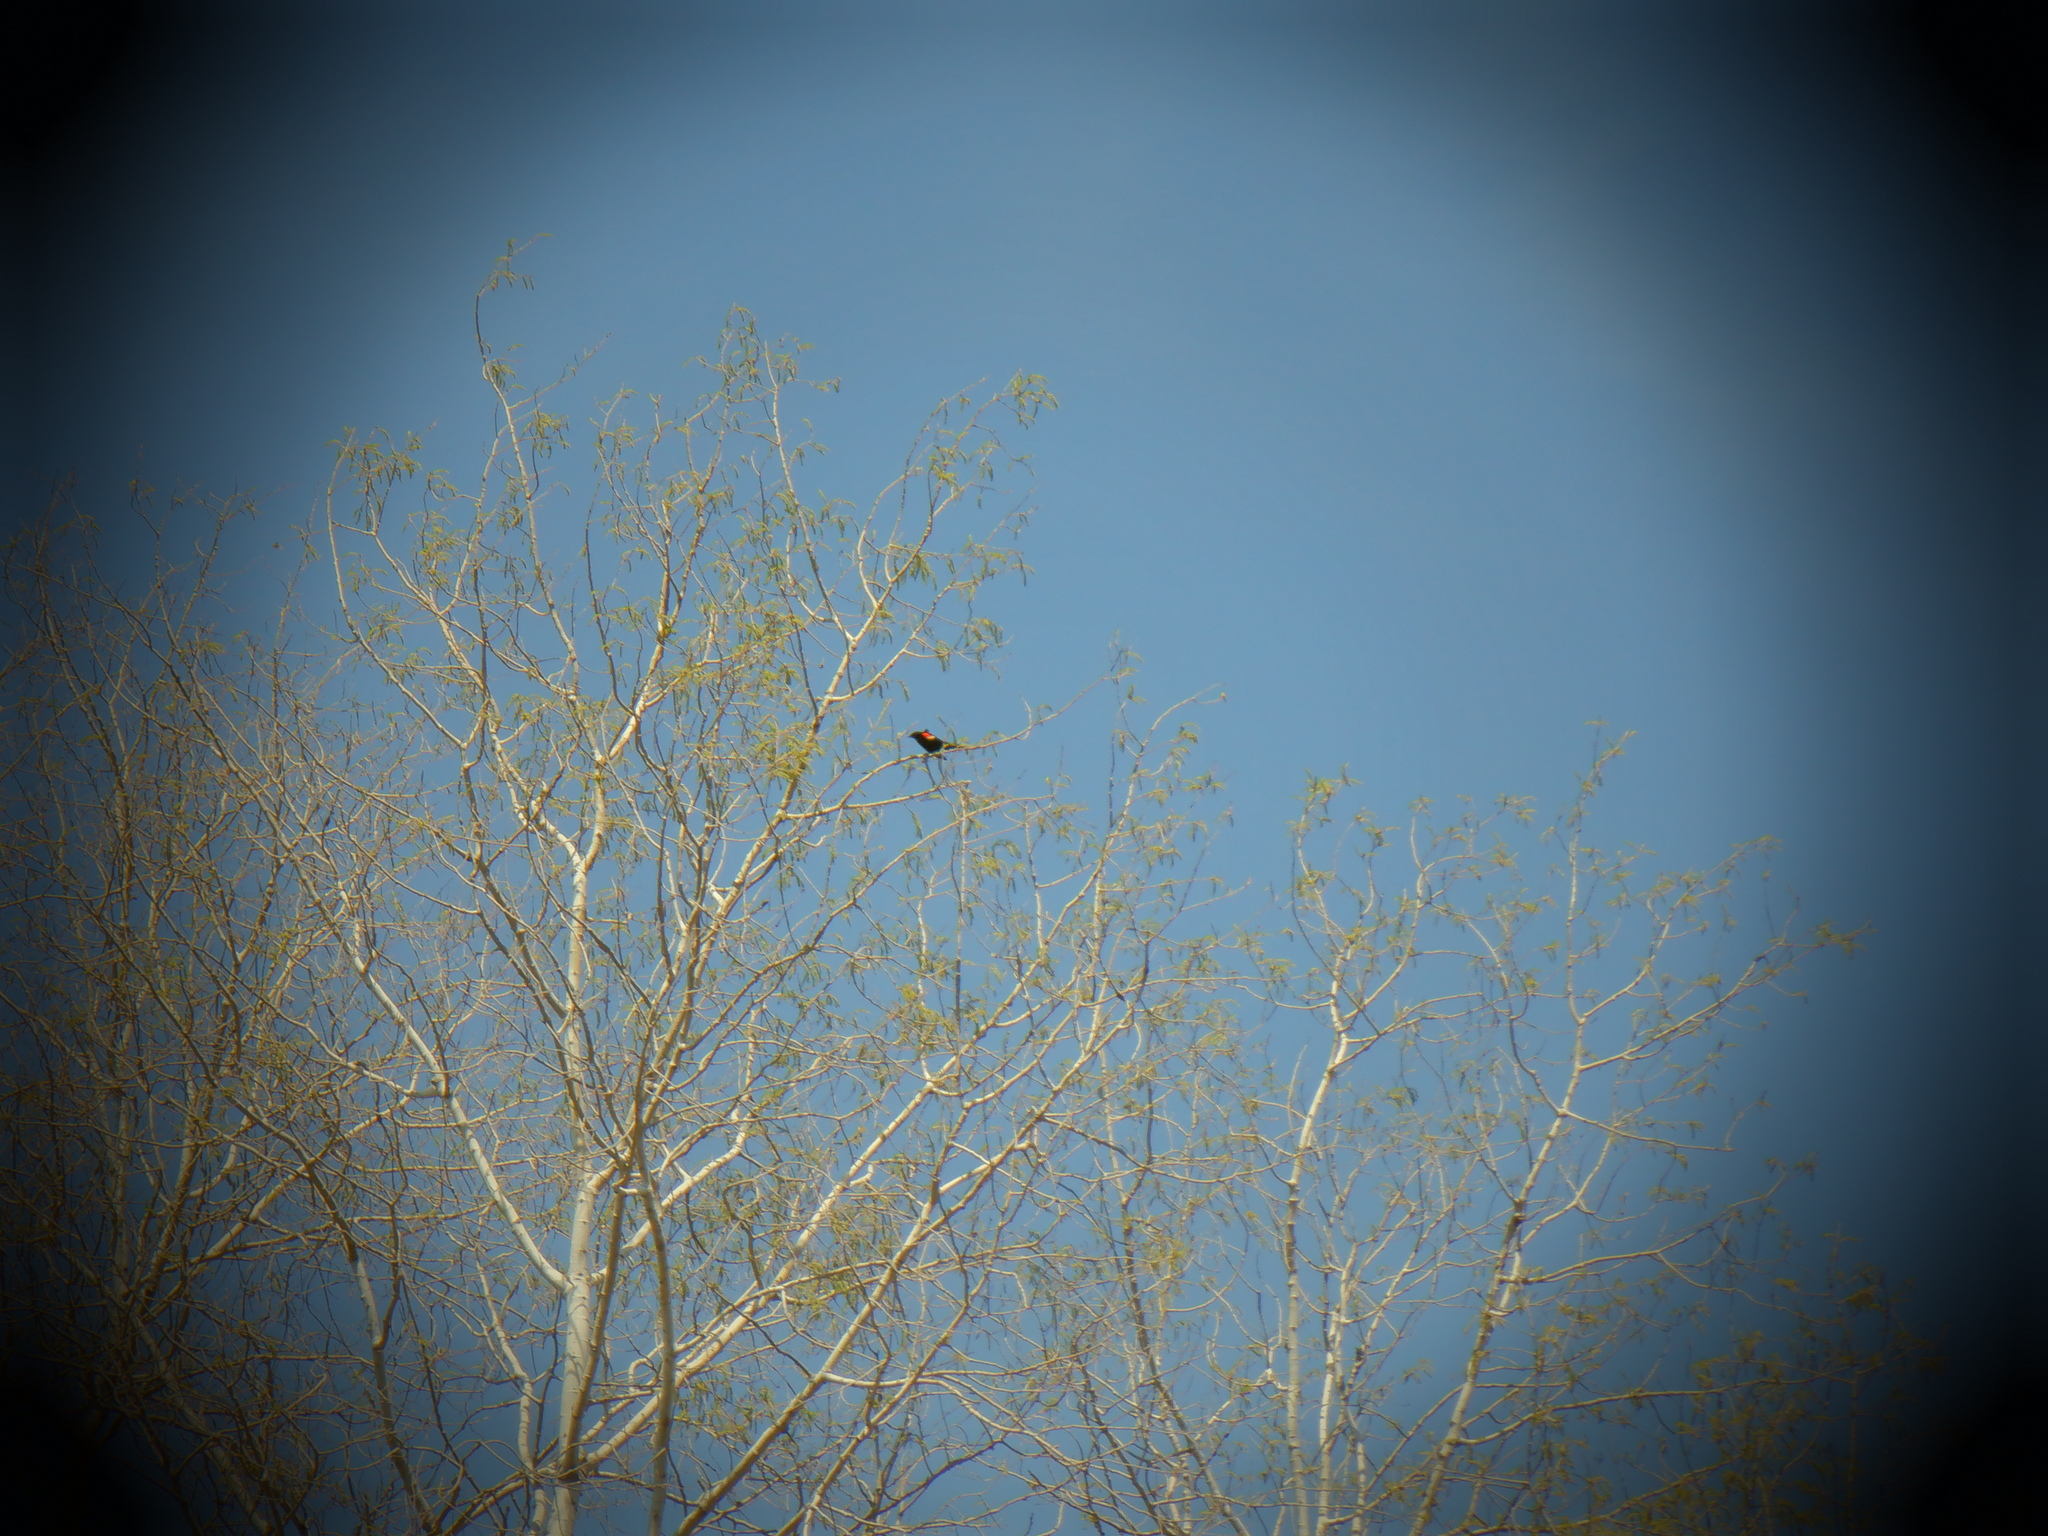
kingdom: Animalia
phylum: Chordata
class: Aves
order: Passeriformes
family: Icteridae
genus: Agelaius
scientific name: Agelaius phoeniceus
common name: Red-winged blackbird
